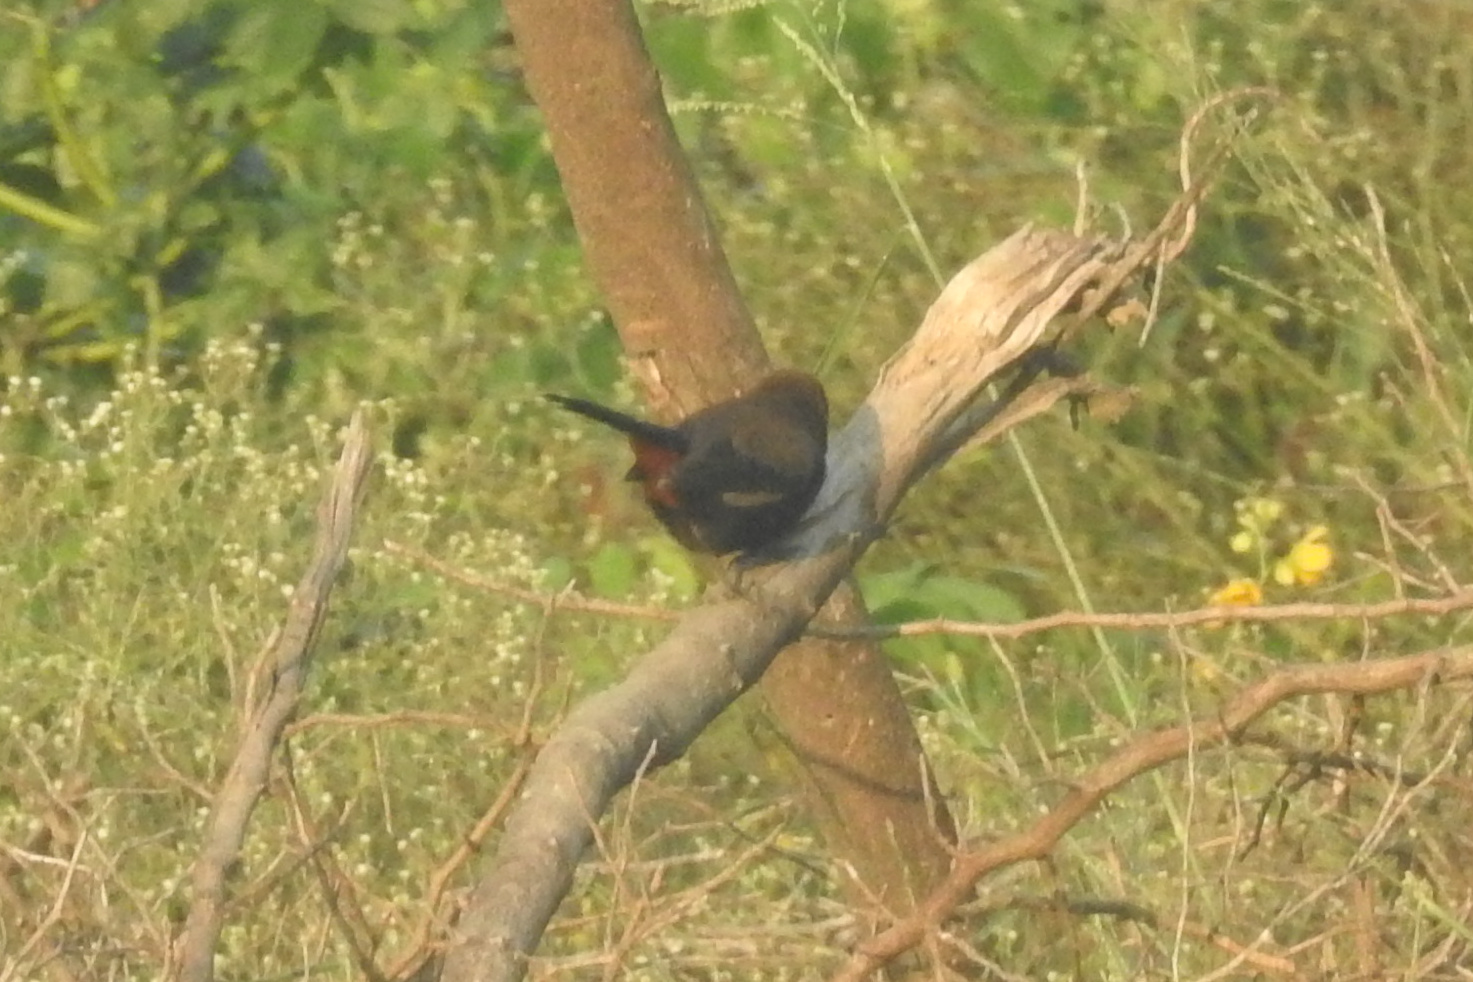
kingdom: Animalia
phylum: Chordata
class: Aves
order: Passeriformes
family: Muscicapidae
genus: Saxicoloides
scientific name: Saxicoloides fulicatus
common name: Indian robin
